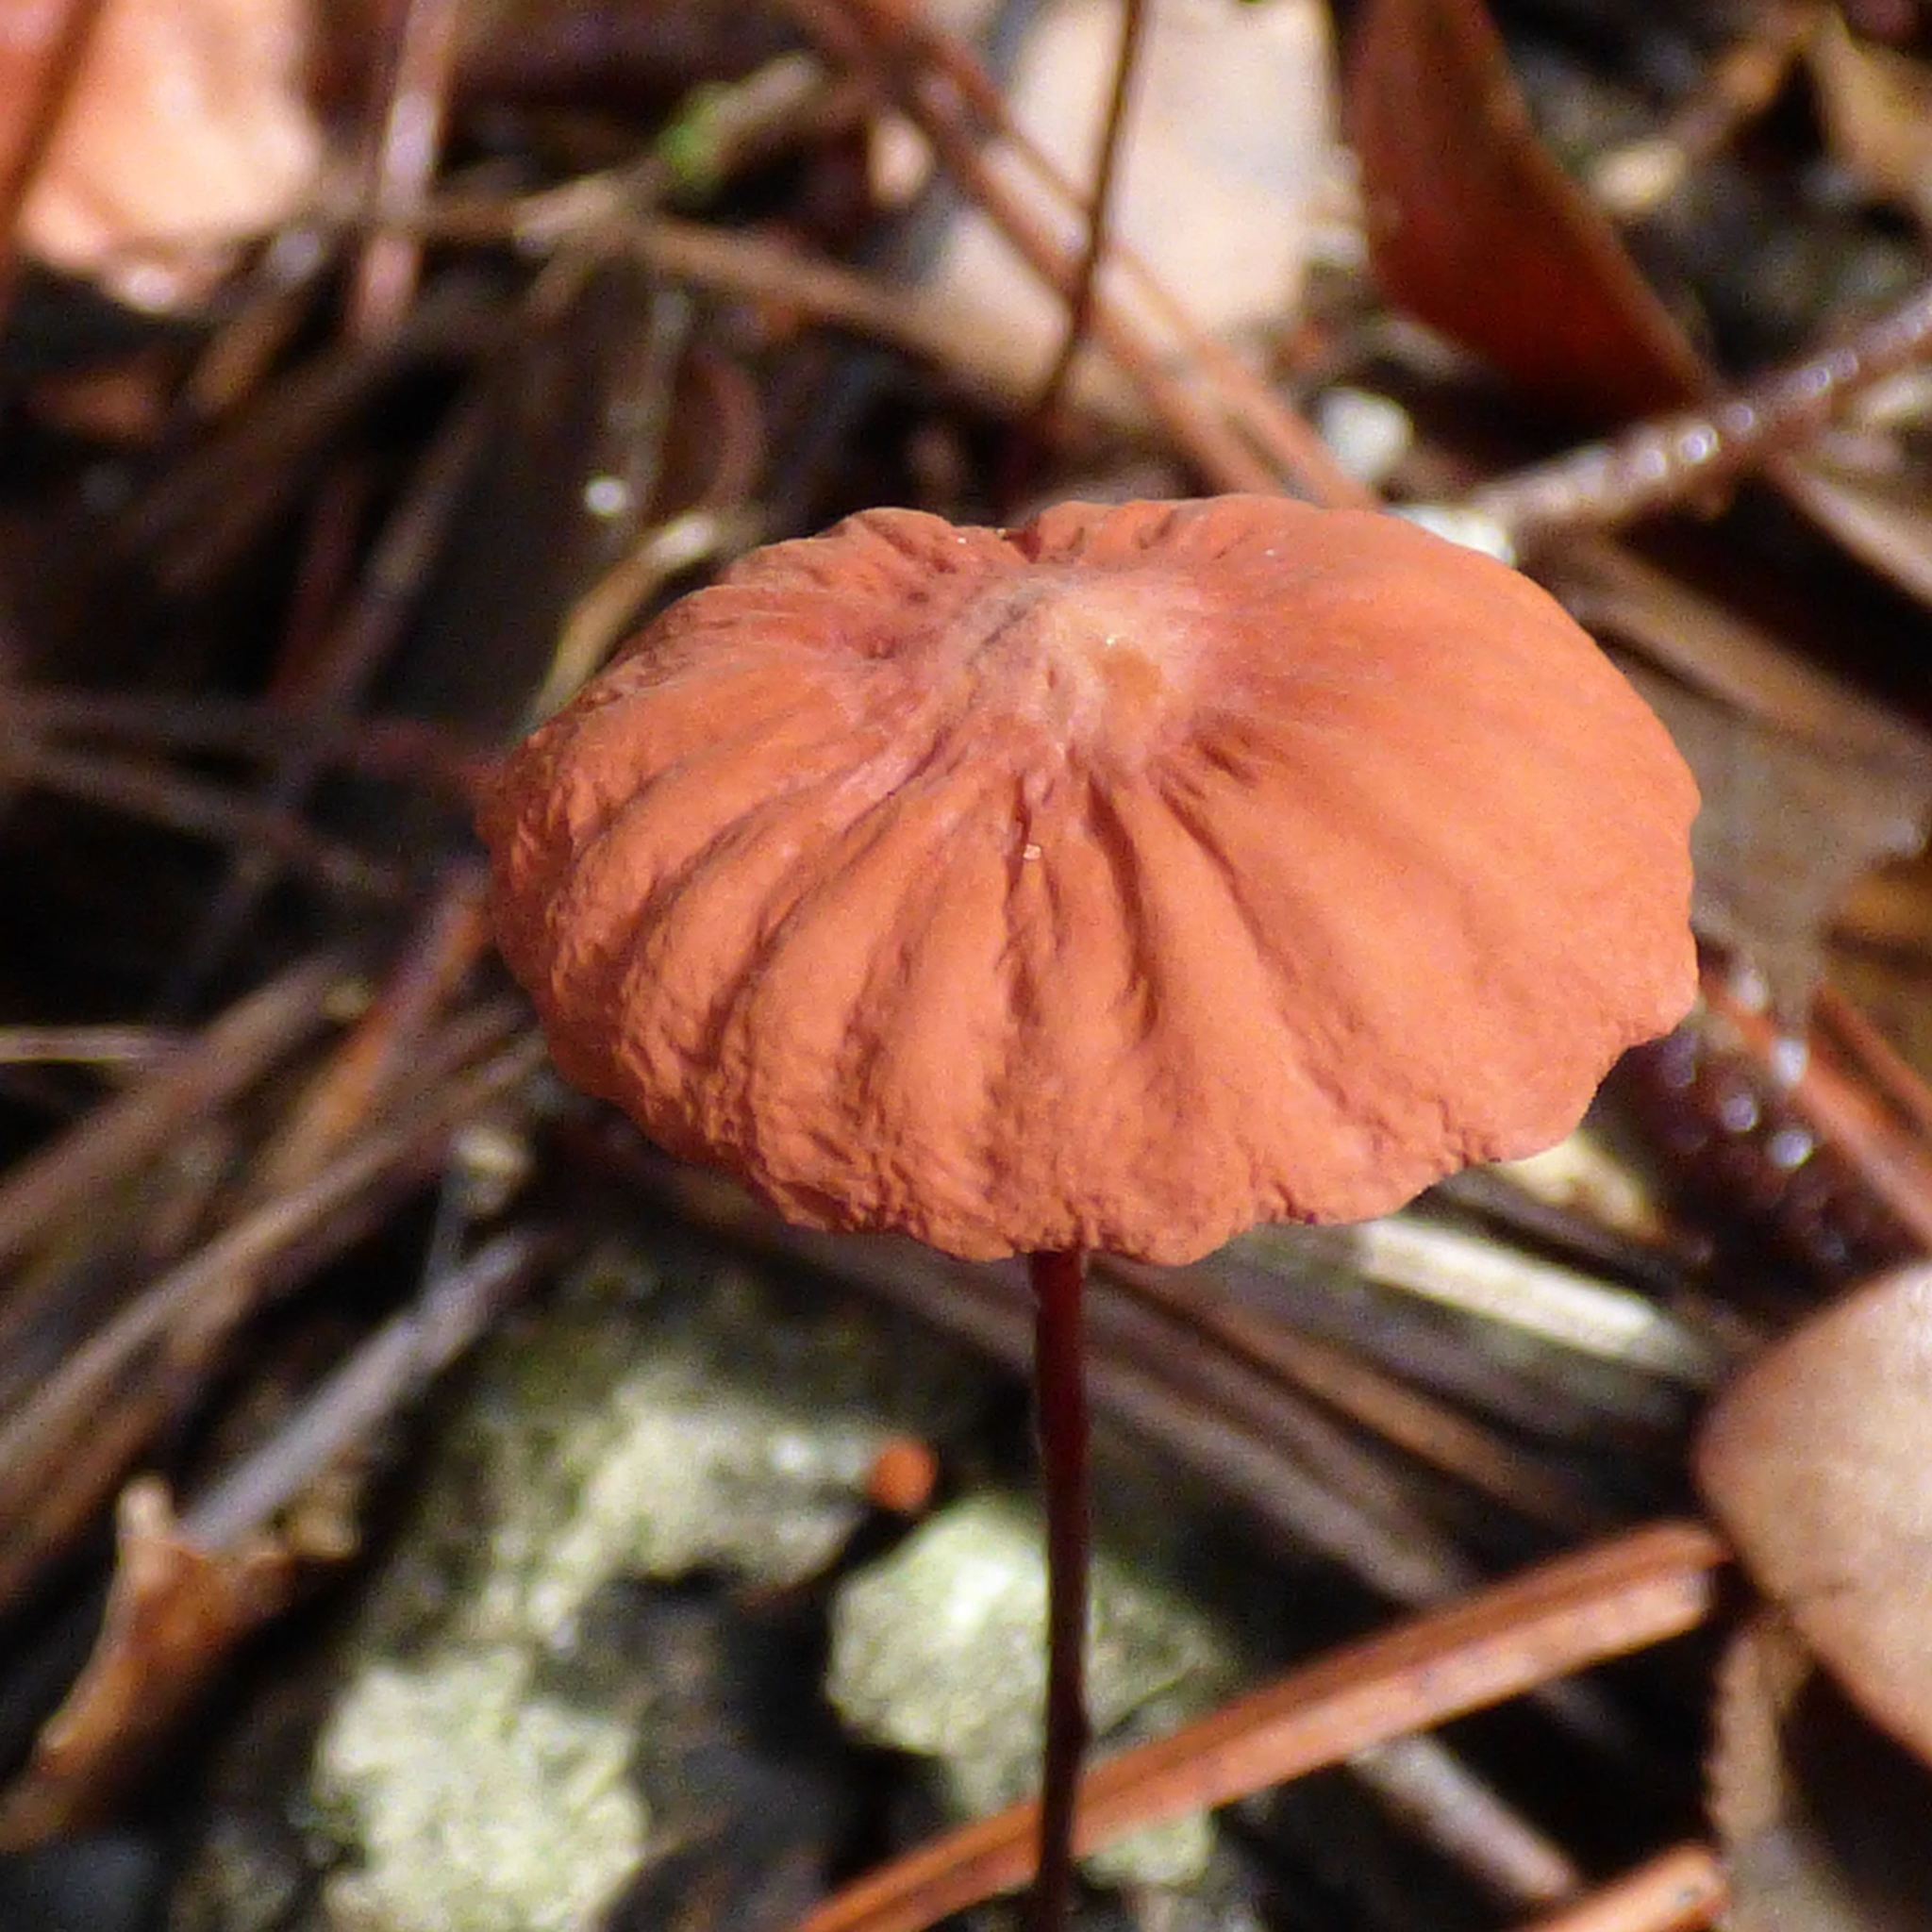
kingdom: Fungi
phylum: Basidiomycota
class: Agaricomycetes
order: Agaricales
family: Marasmiaceae
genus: Marasmius
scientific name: Marasmius siccus
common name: Orange pinwheel
